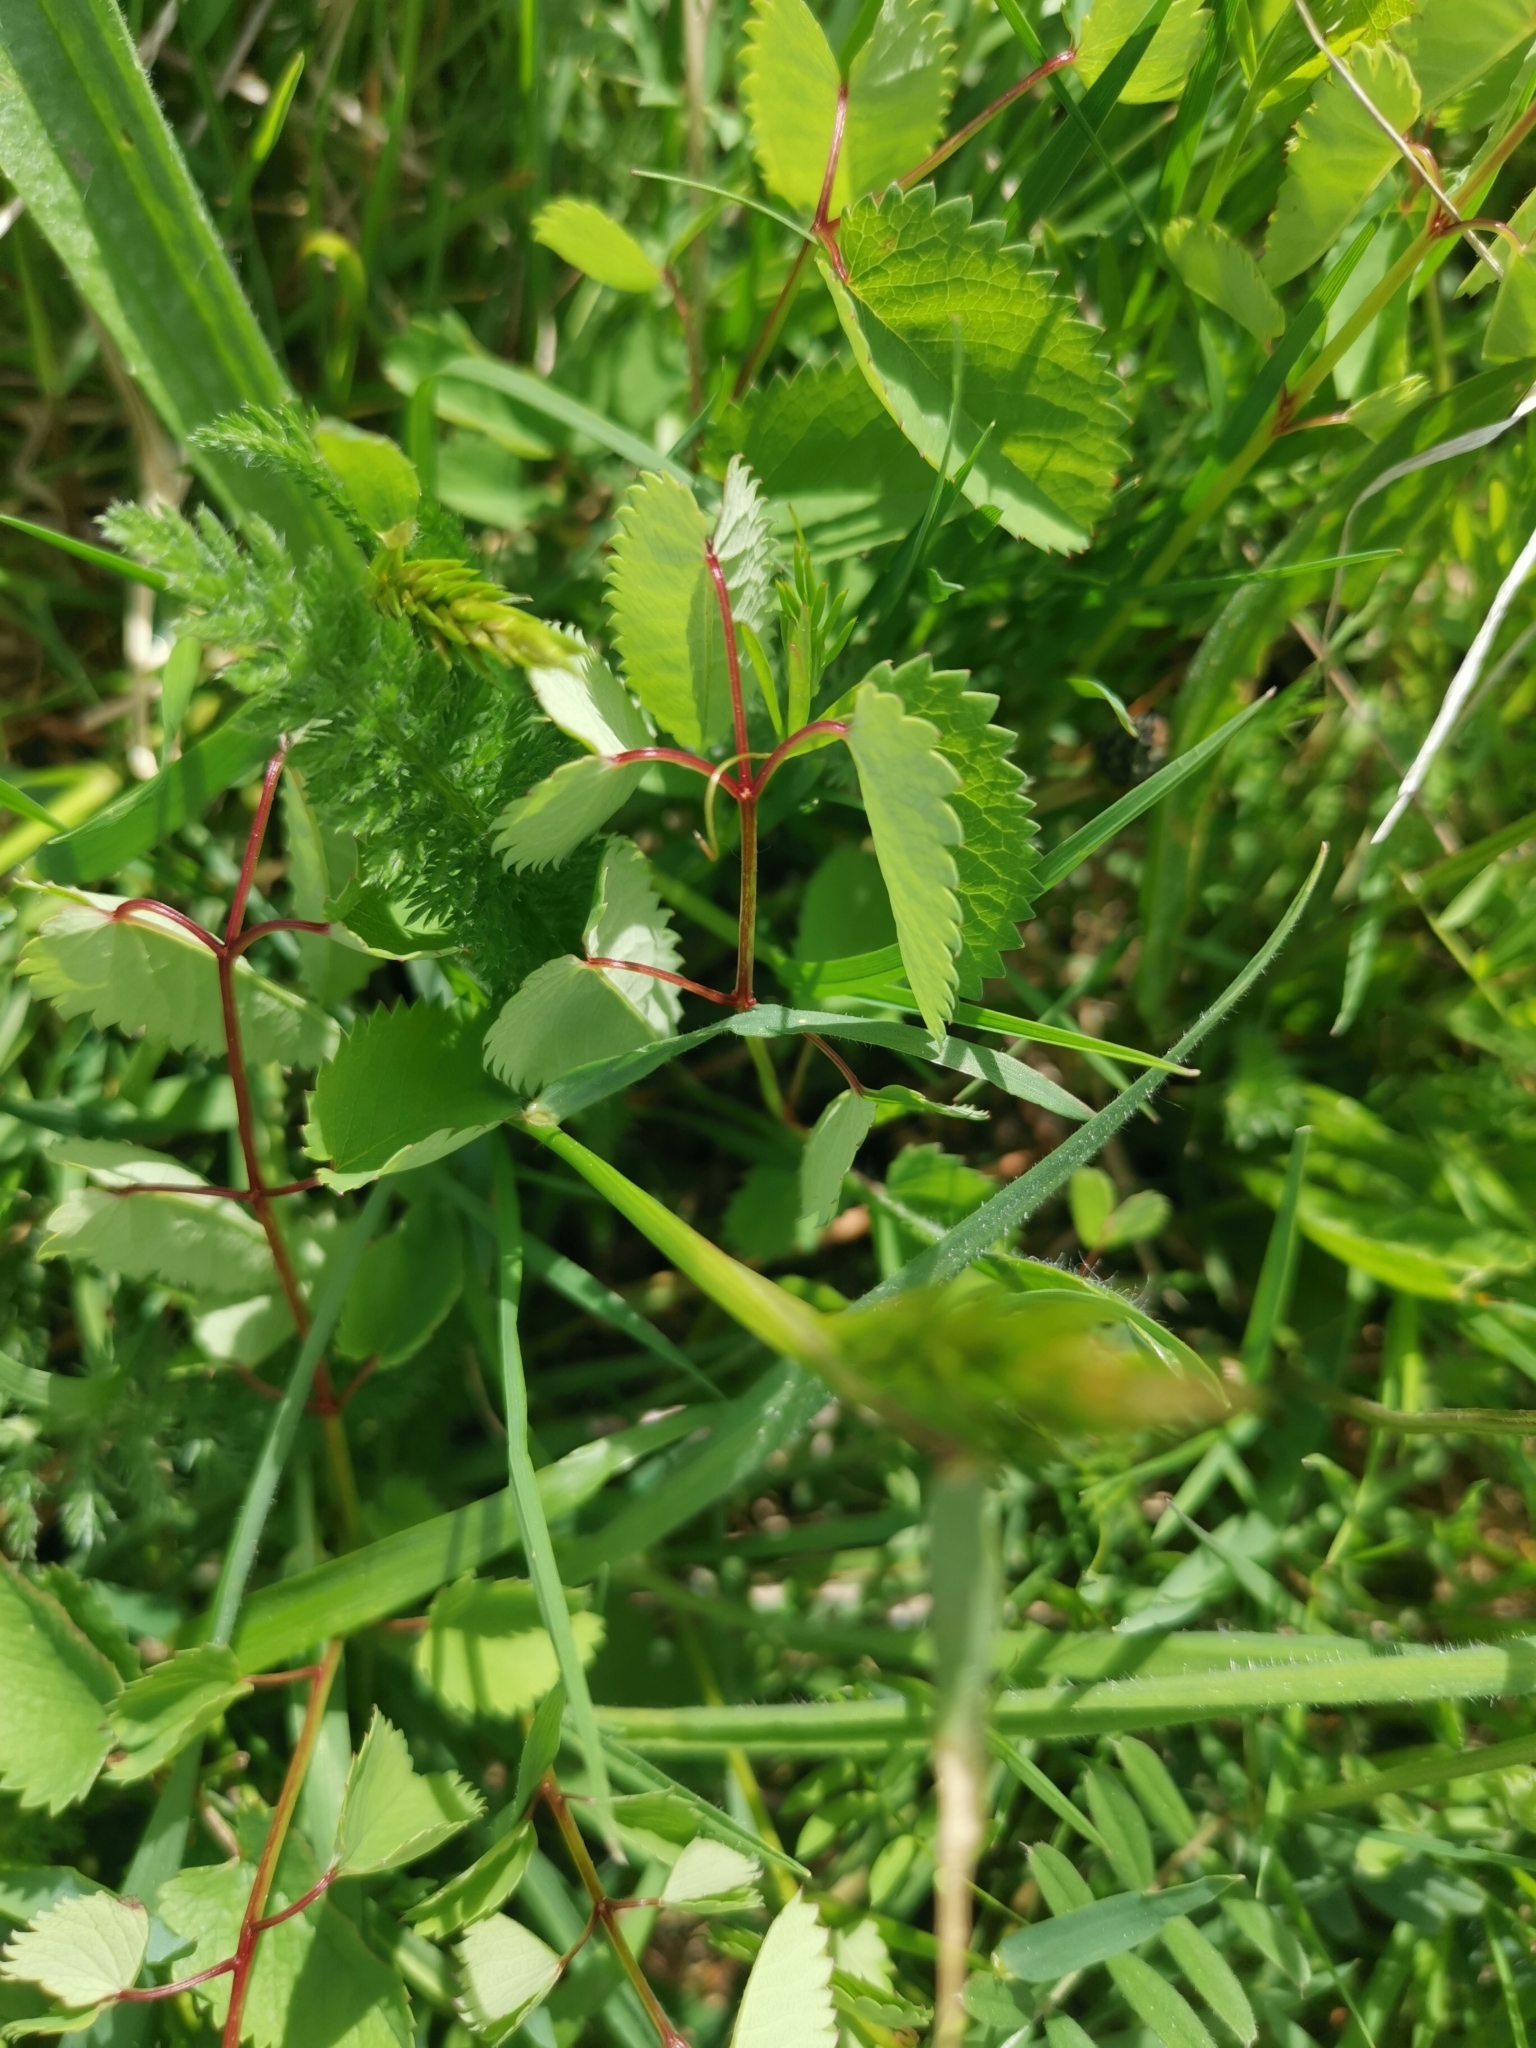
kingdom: Plantae
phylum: Tracheophyta
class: Magnoliopsida
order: Rosales
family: Rosaceae
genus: Sanguisorba
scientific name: Sanguisorba officinalis
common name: Great burnet
